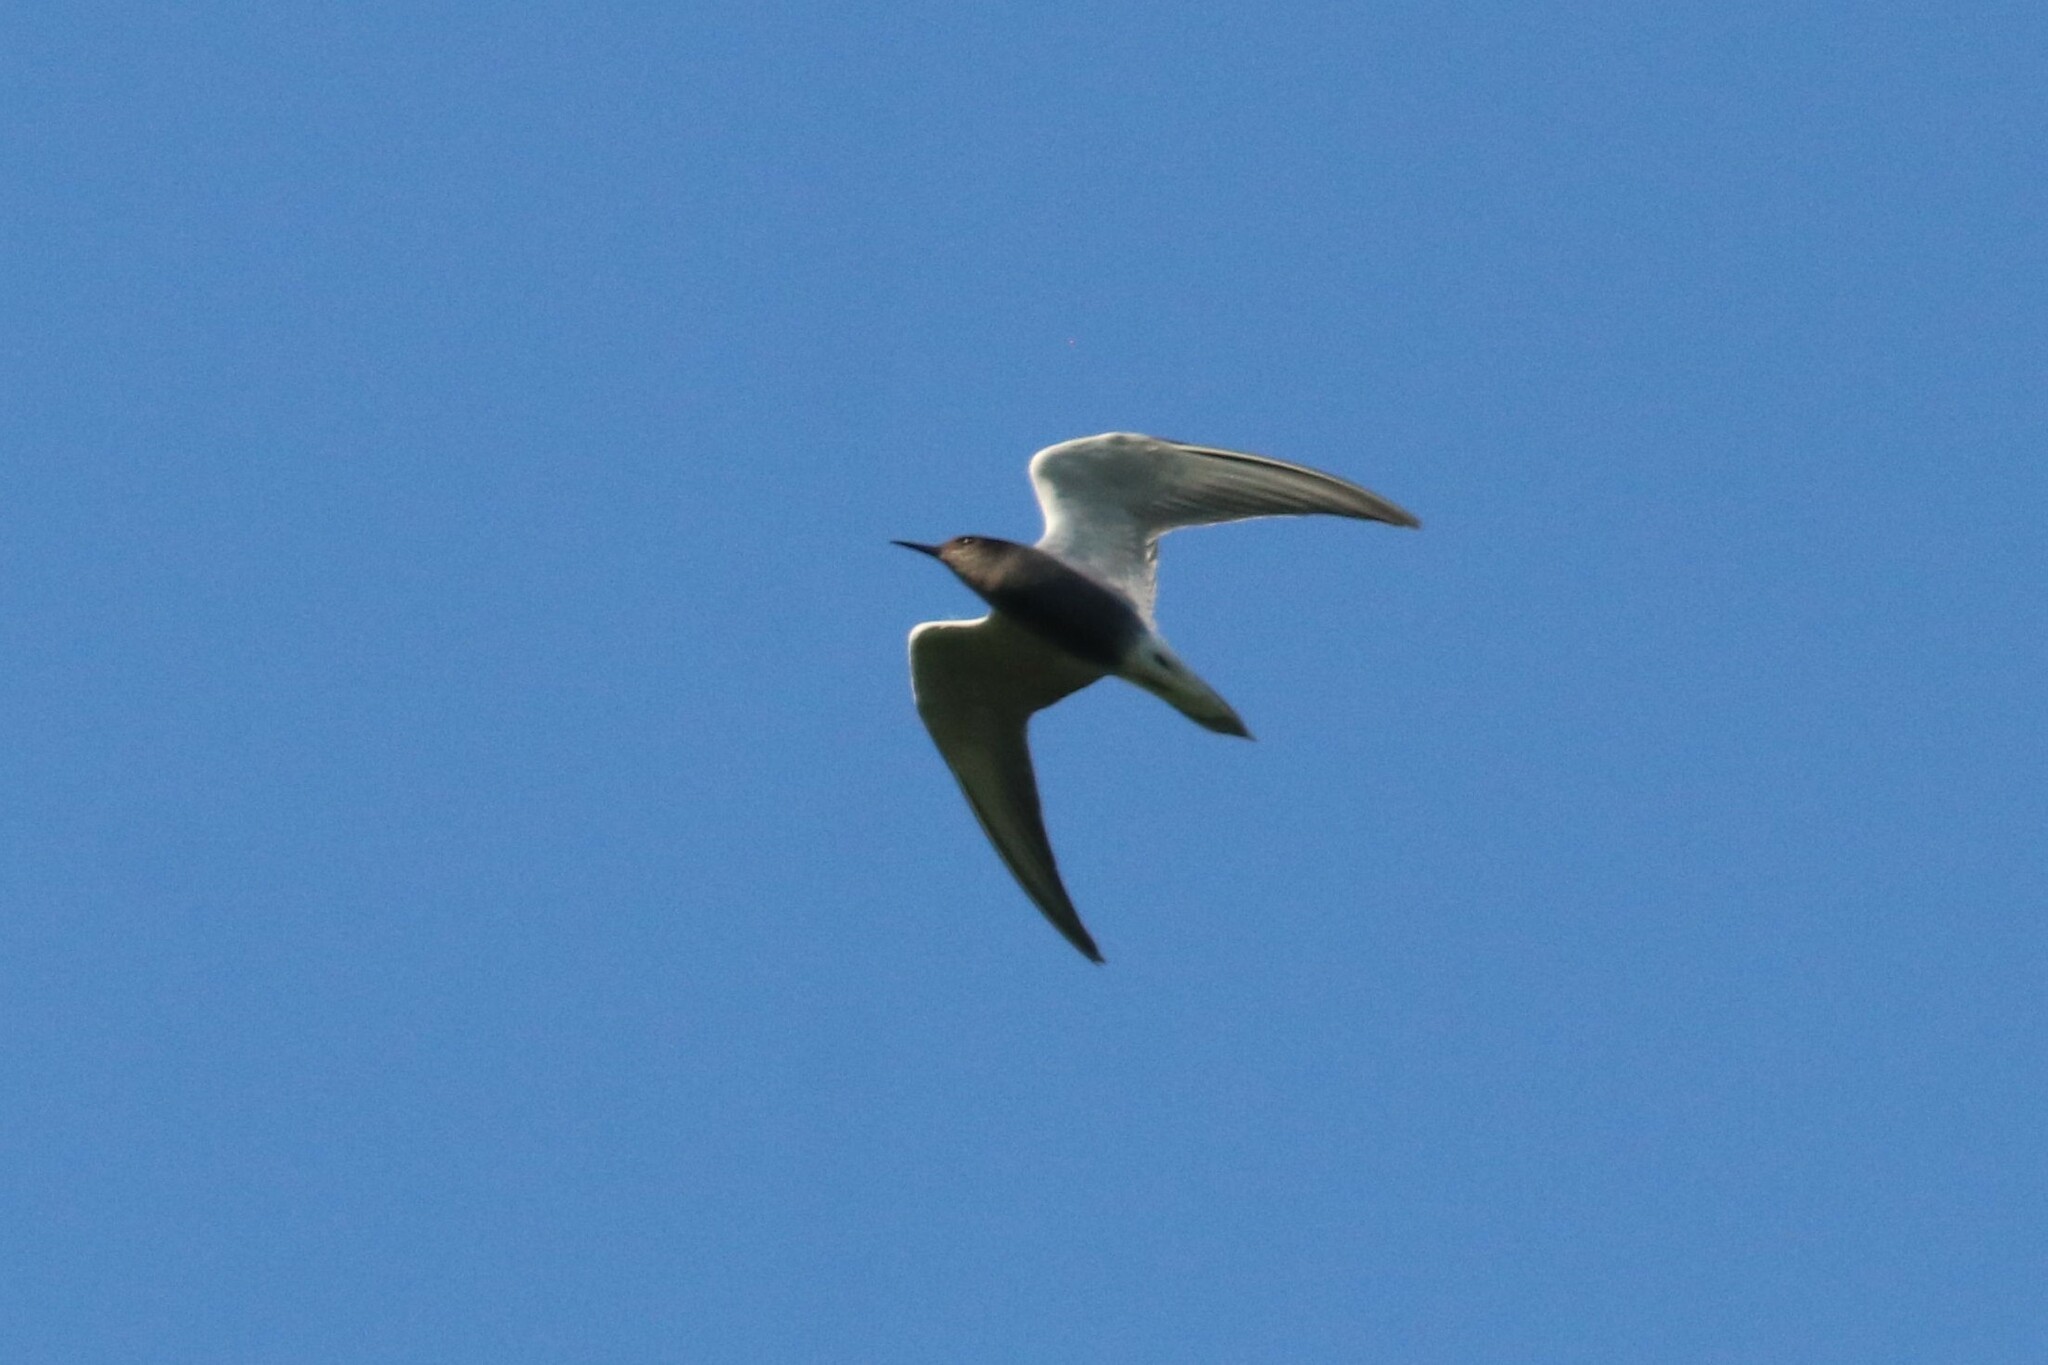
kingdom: Animalia
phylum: Chordata
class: Aves
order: Charadriiformes
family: Laridae
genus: Chlidonias
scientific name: Chlidonias niger
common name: Black tern
